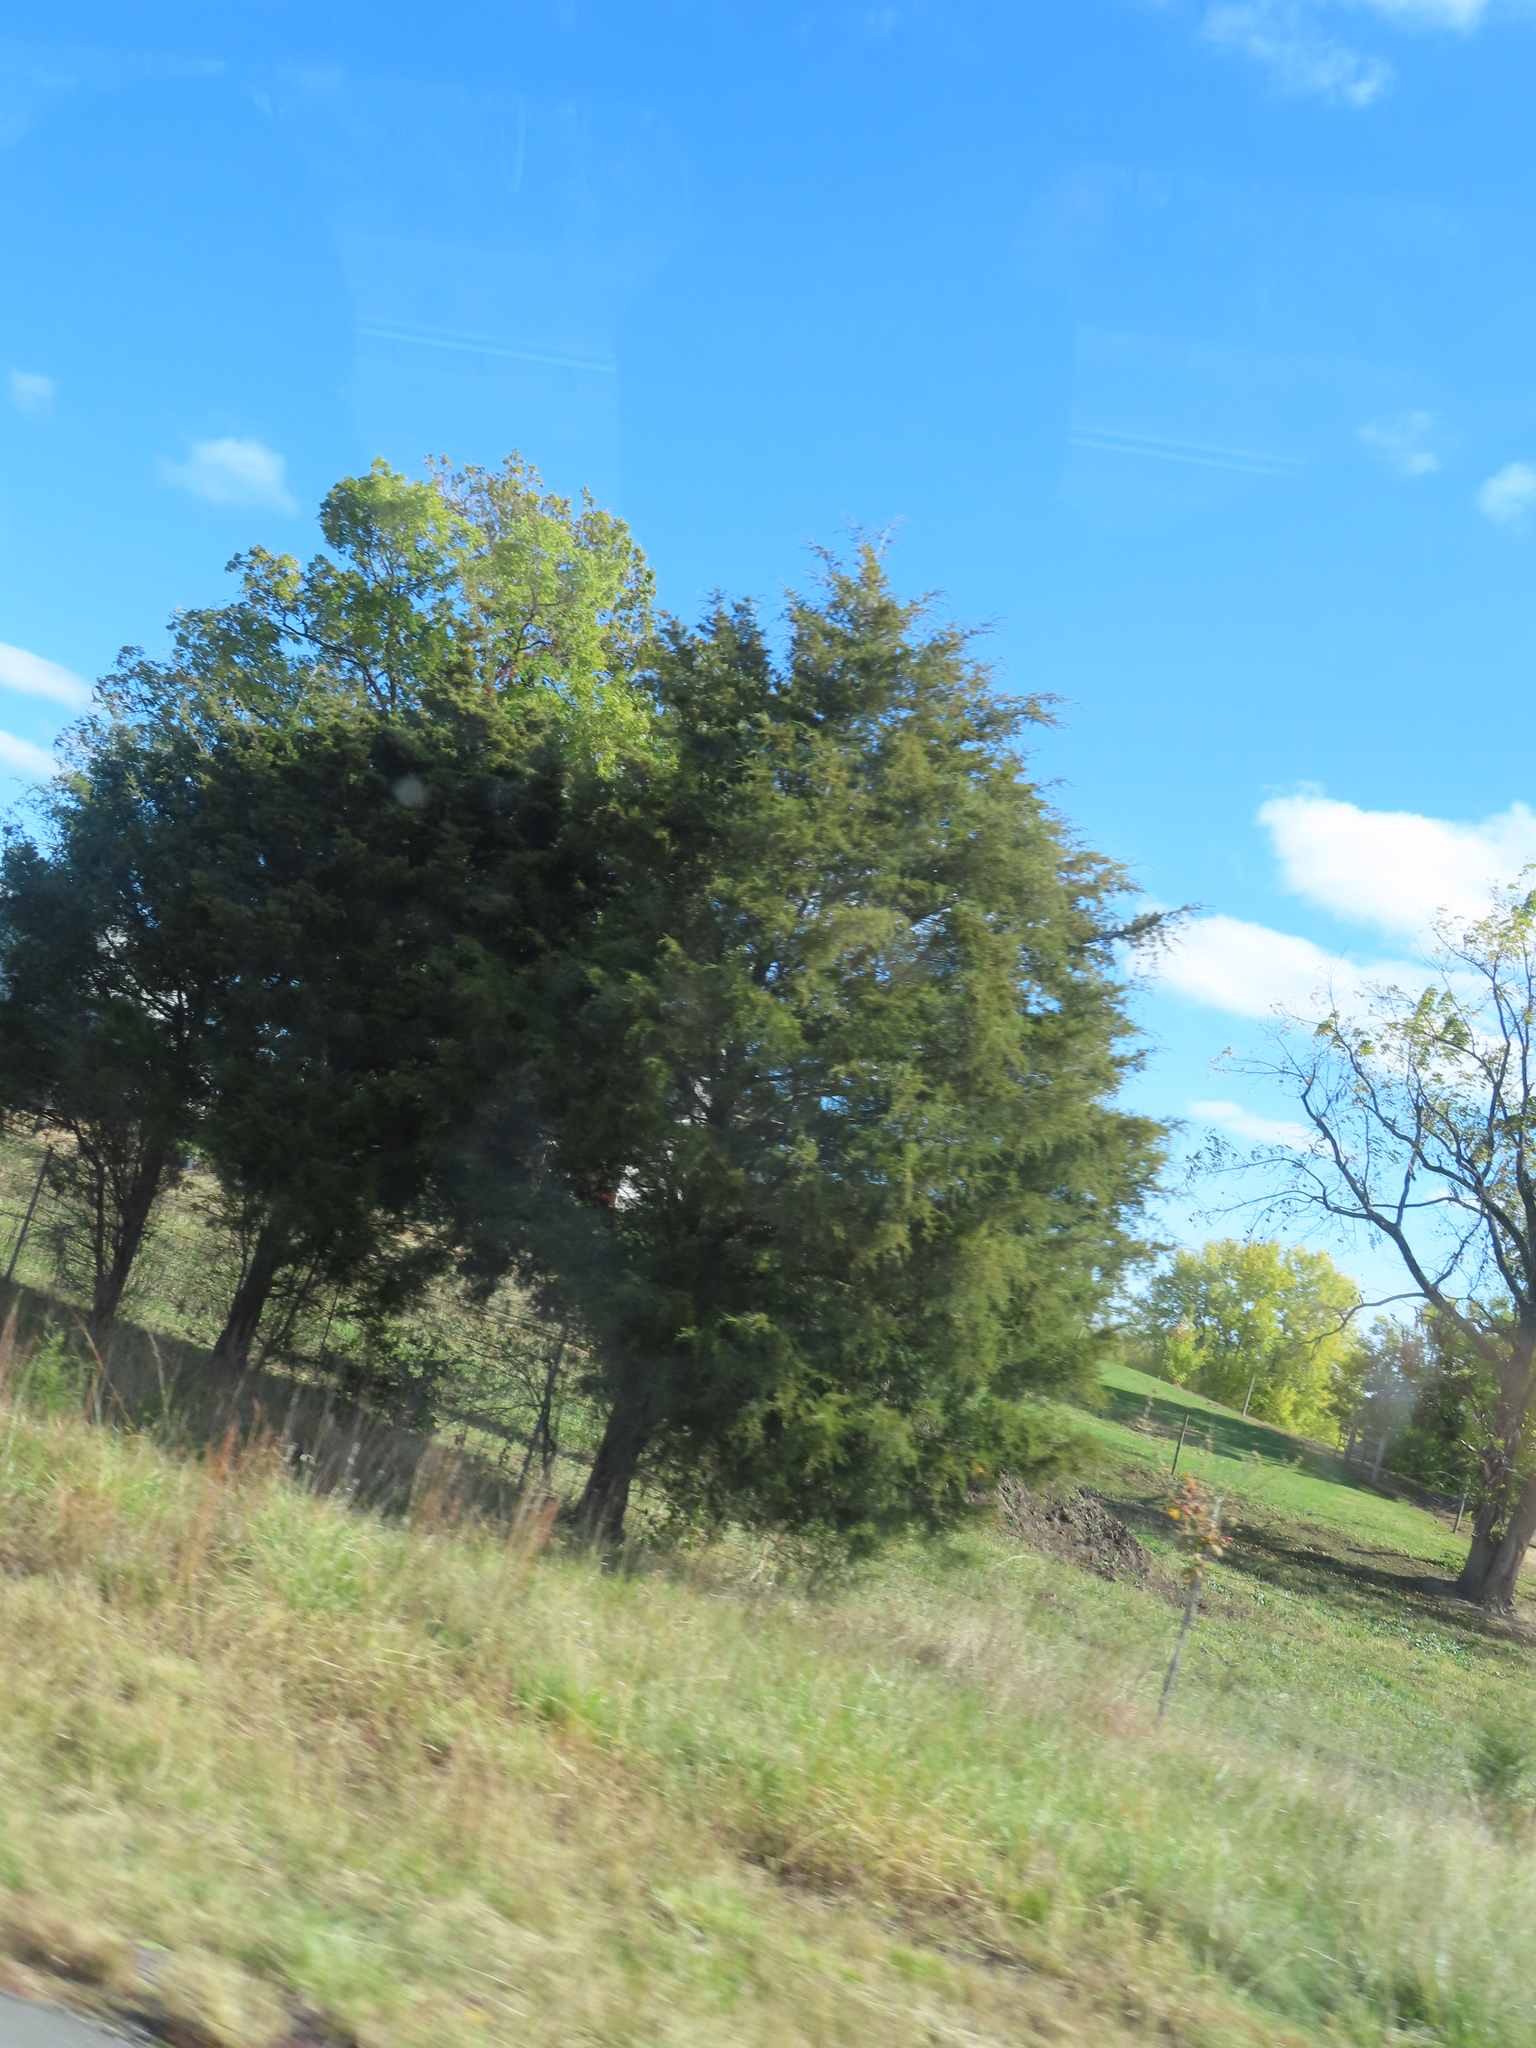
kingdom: Plantae
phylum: Tracheophyta
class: Pinopsida
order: Pinales
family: Cupressaceae
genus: Juniperus
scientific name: Juniperus virginiana
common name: Red juniper
